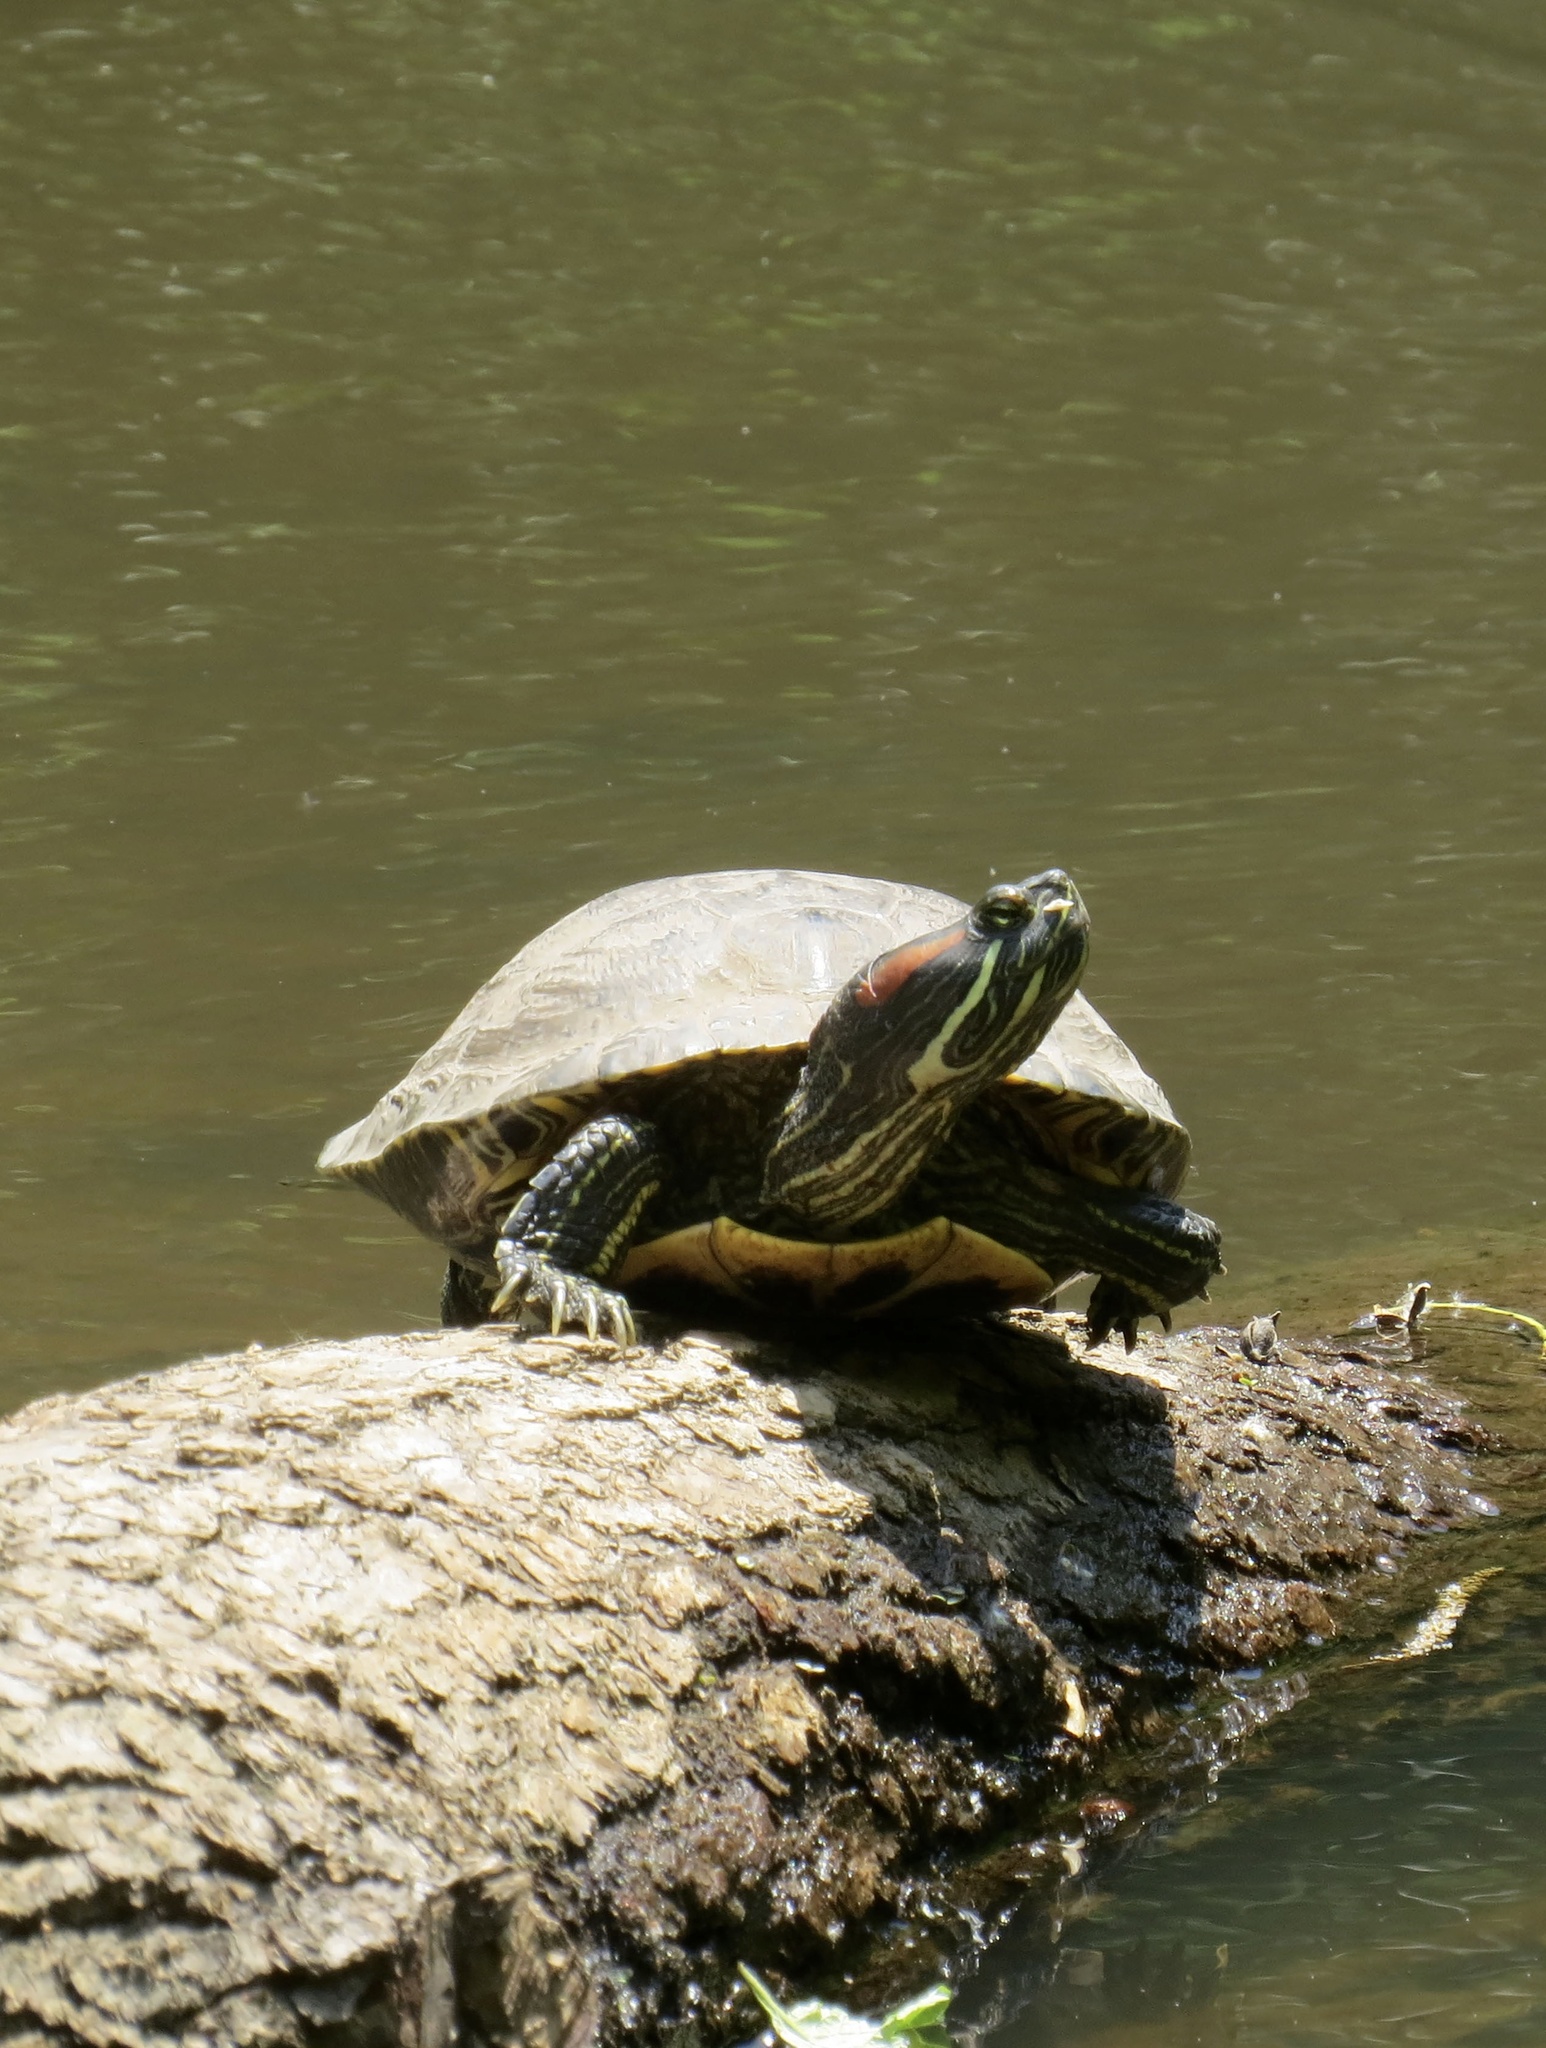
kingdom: Animalia
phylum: Chordata
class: Testudines
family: Emydidae
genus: Trachemys
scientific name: Trachemys scripta
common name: Slider
